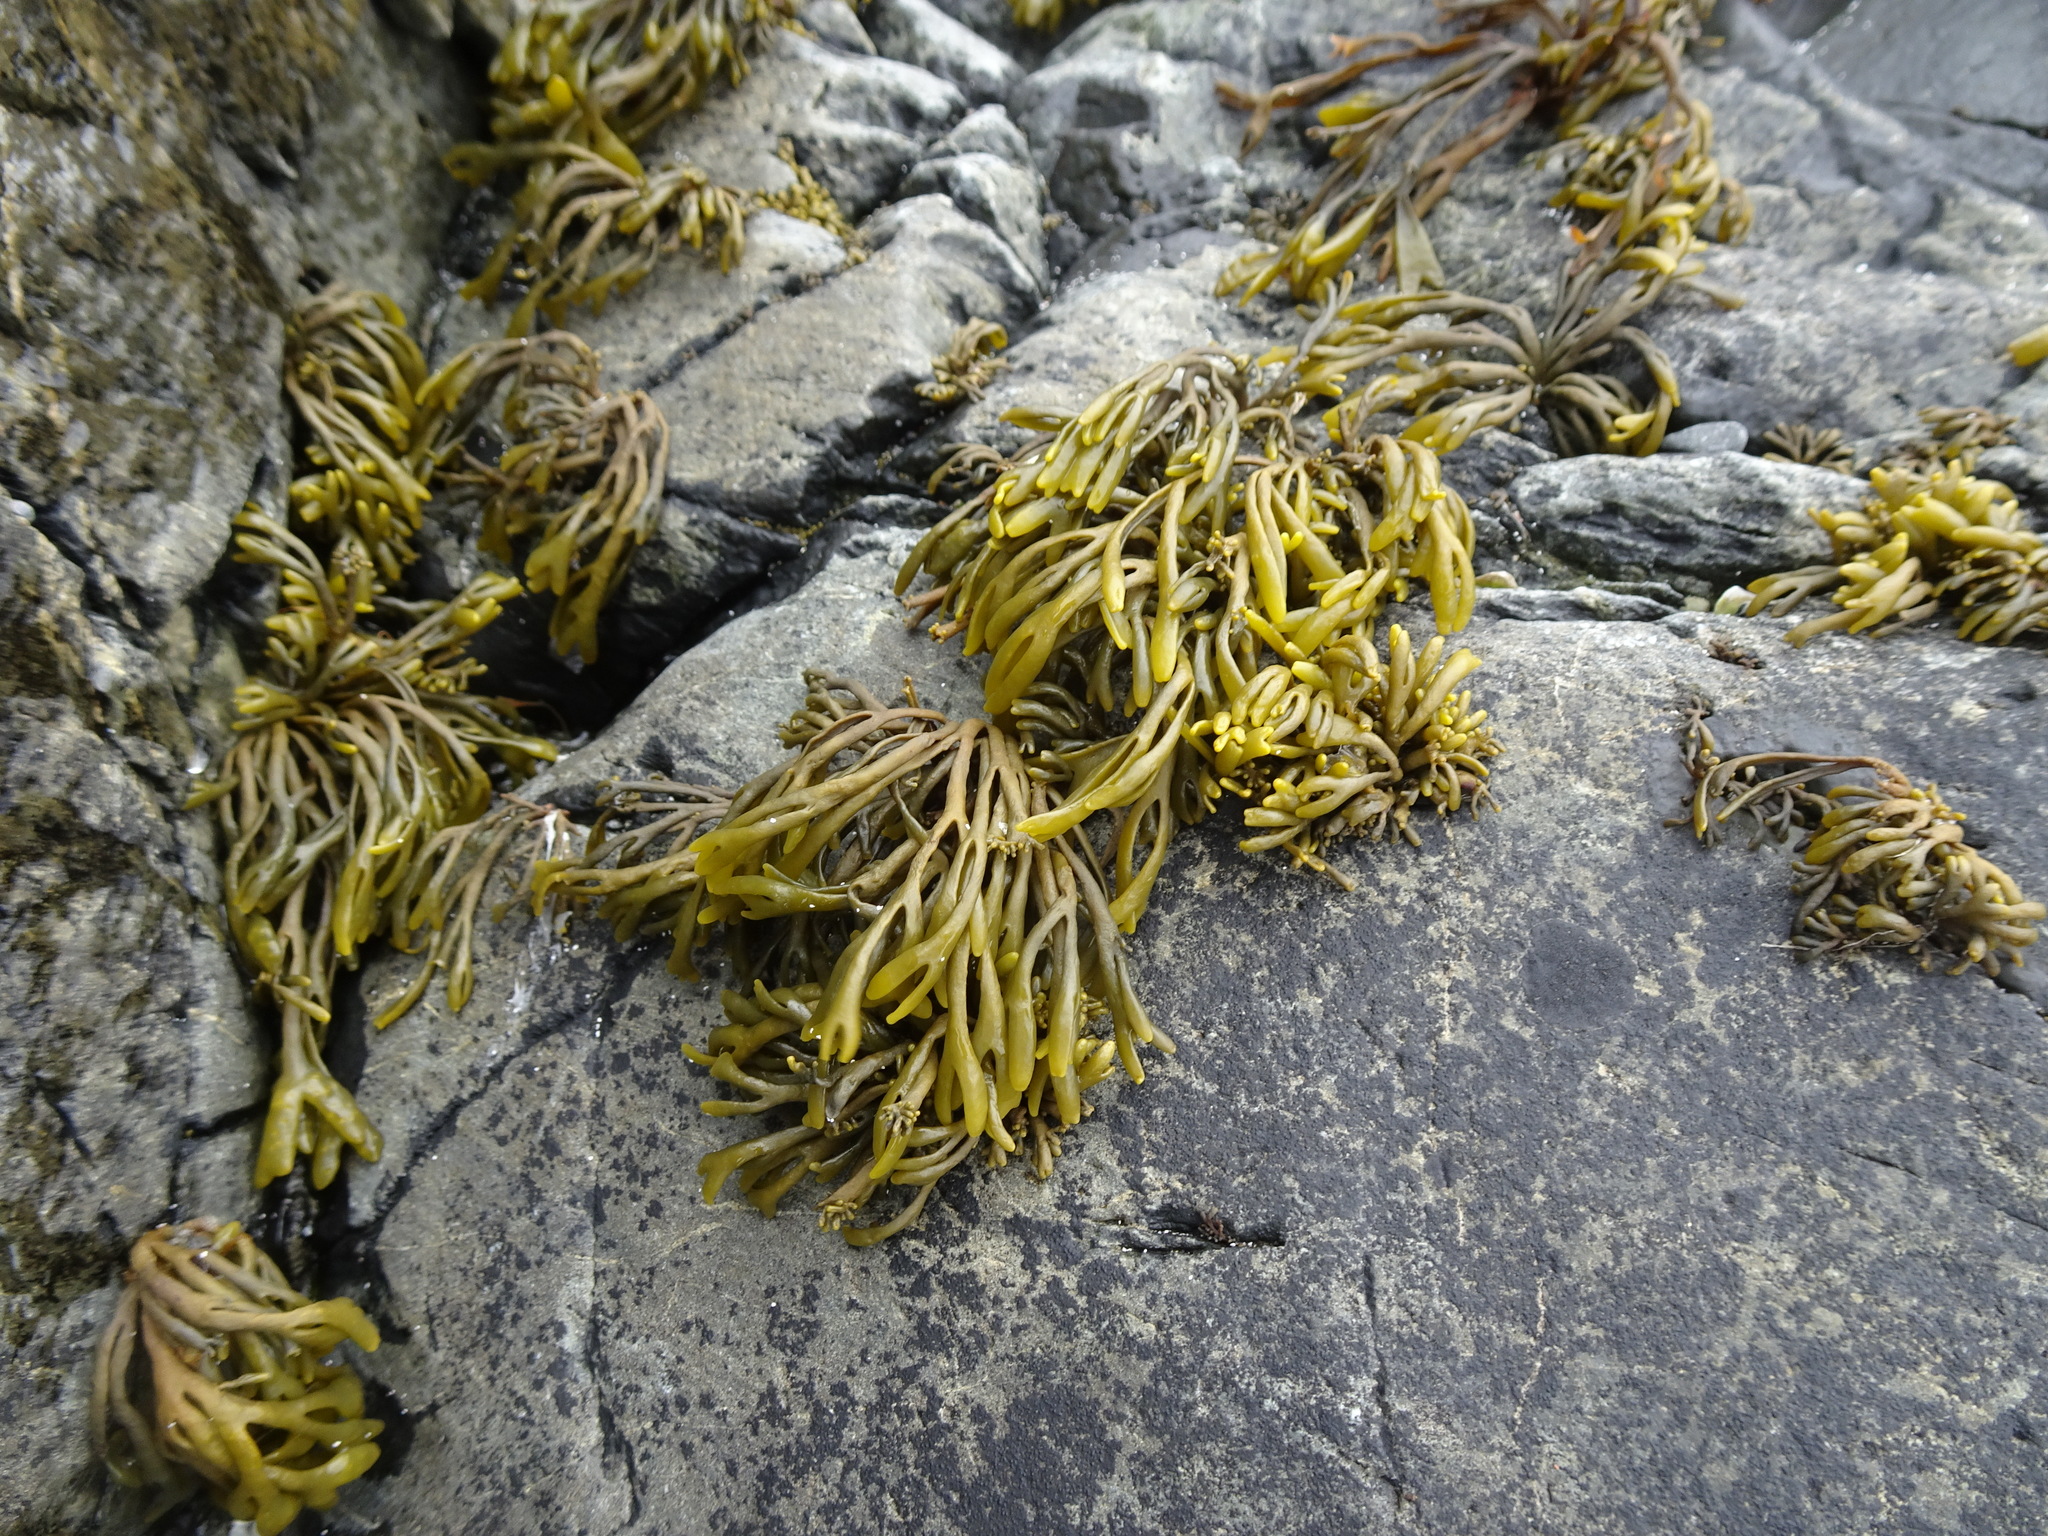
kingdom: Chromista
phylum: Ochrophyta
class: Phaeophyceae
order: Fucales
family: Fucaceae
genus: Pelvetia
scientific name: Pelvetia canaliculata
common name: Channelled wrack
